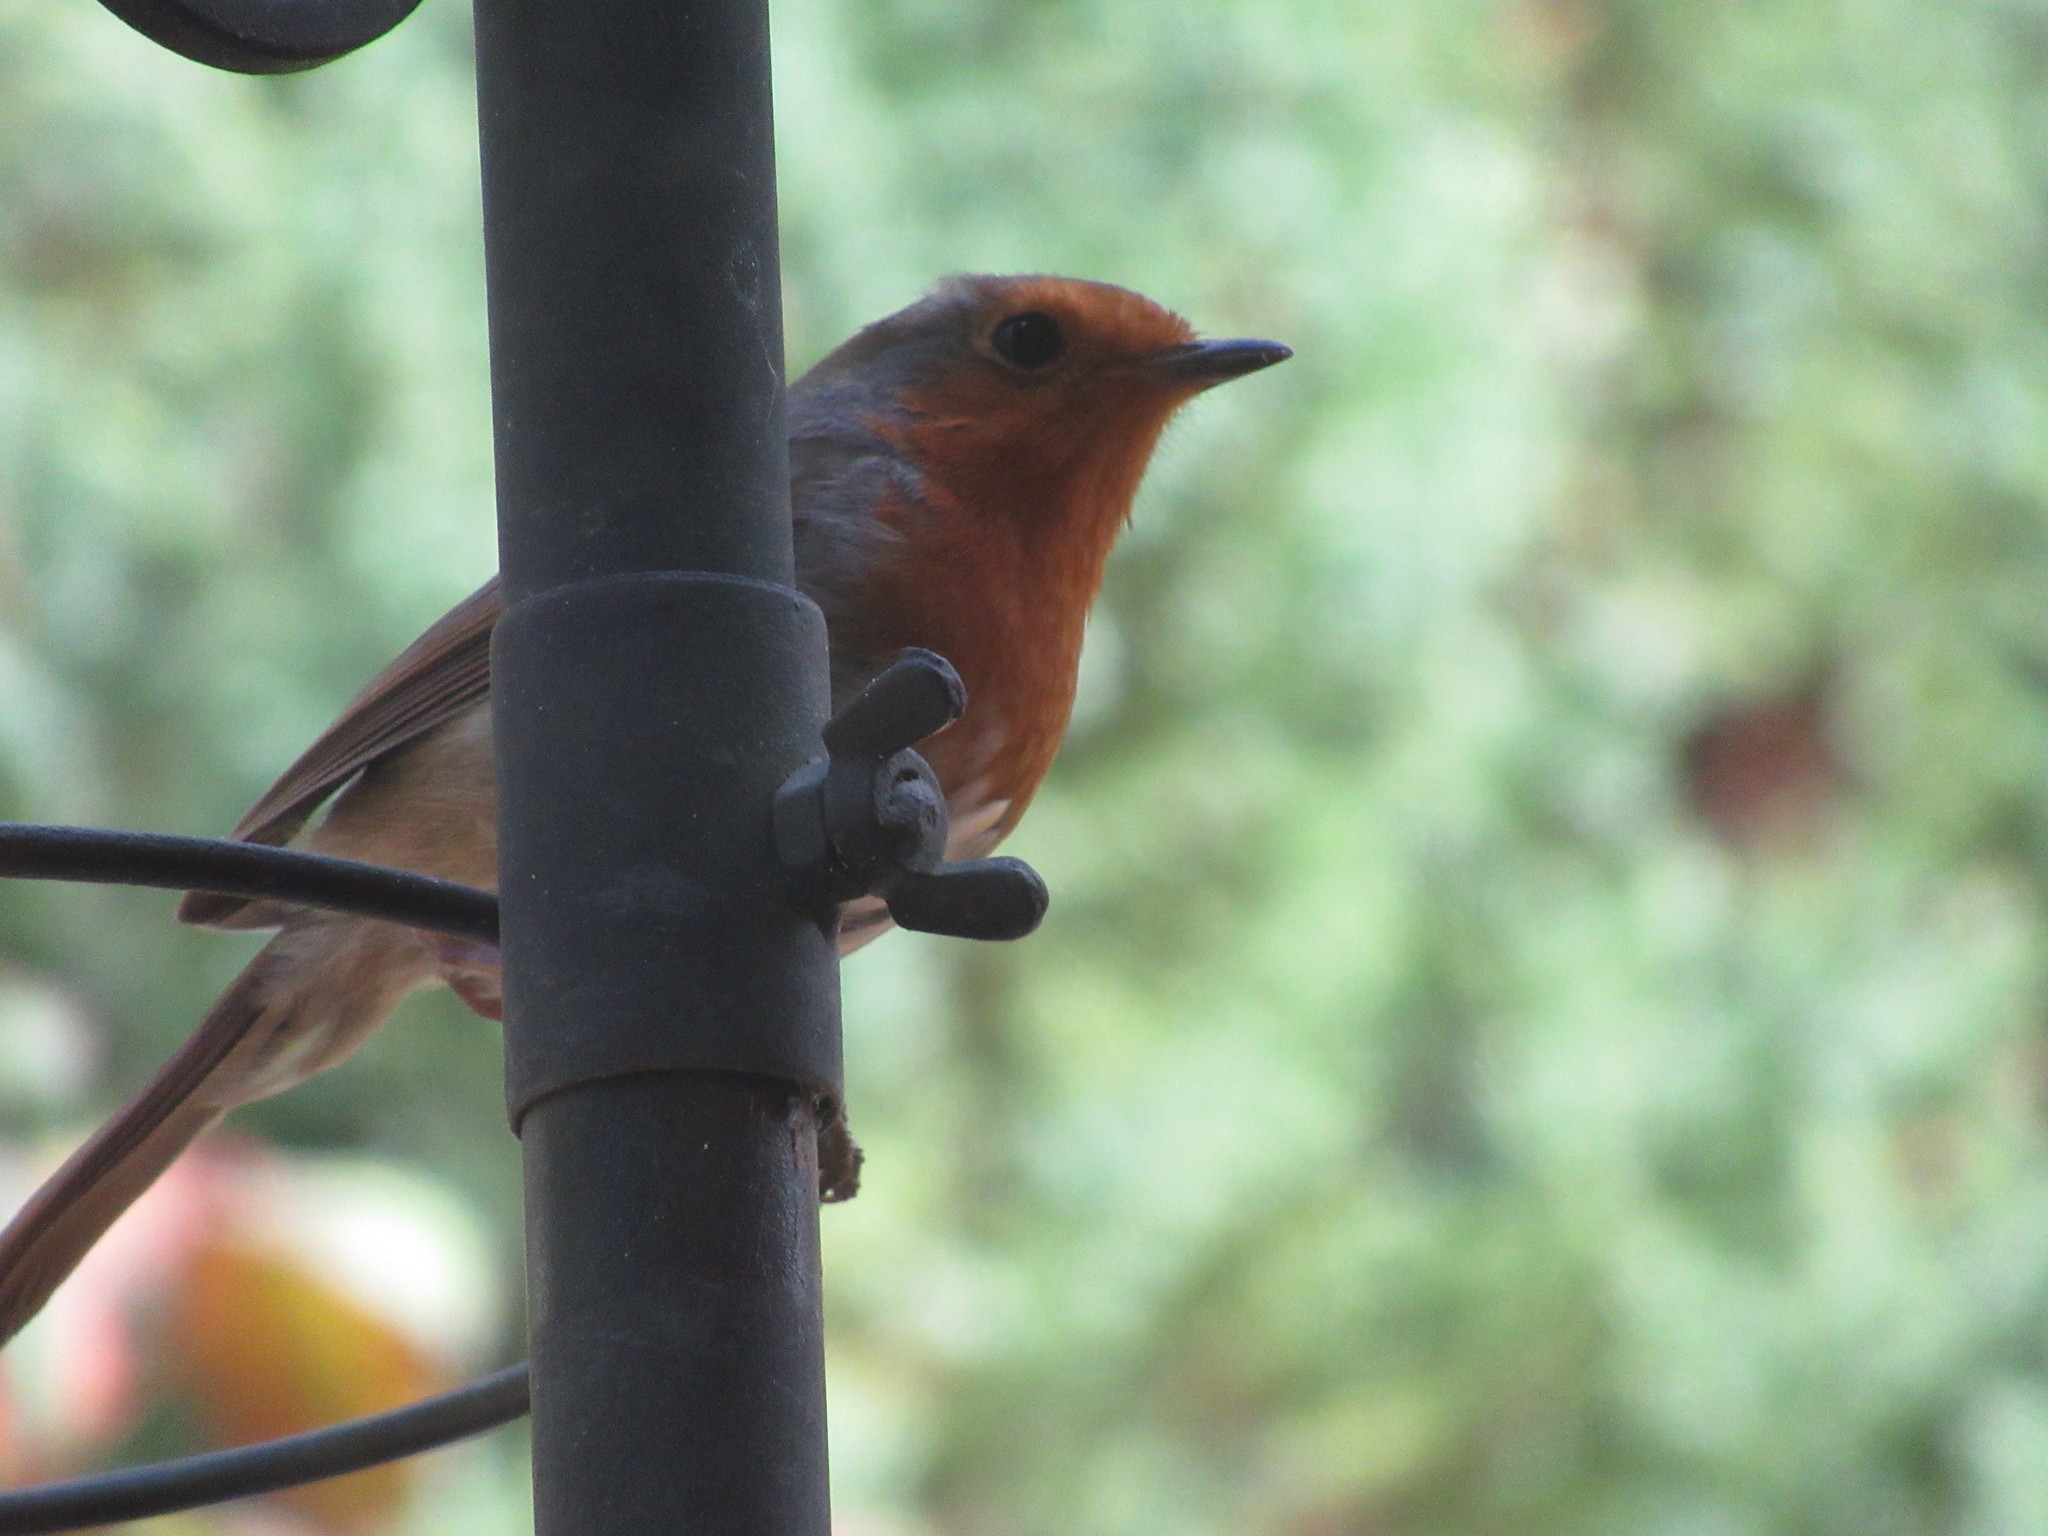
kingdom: Animalia
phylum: Chordata
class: Aves
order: Passeriformes
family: Muscicapidae
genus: Erithacus
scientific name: Erithacus rubecula
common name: European robin
